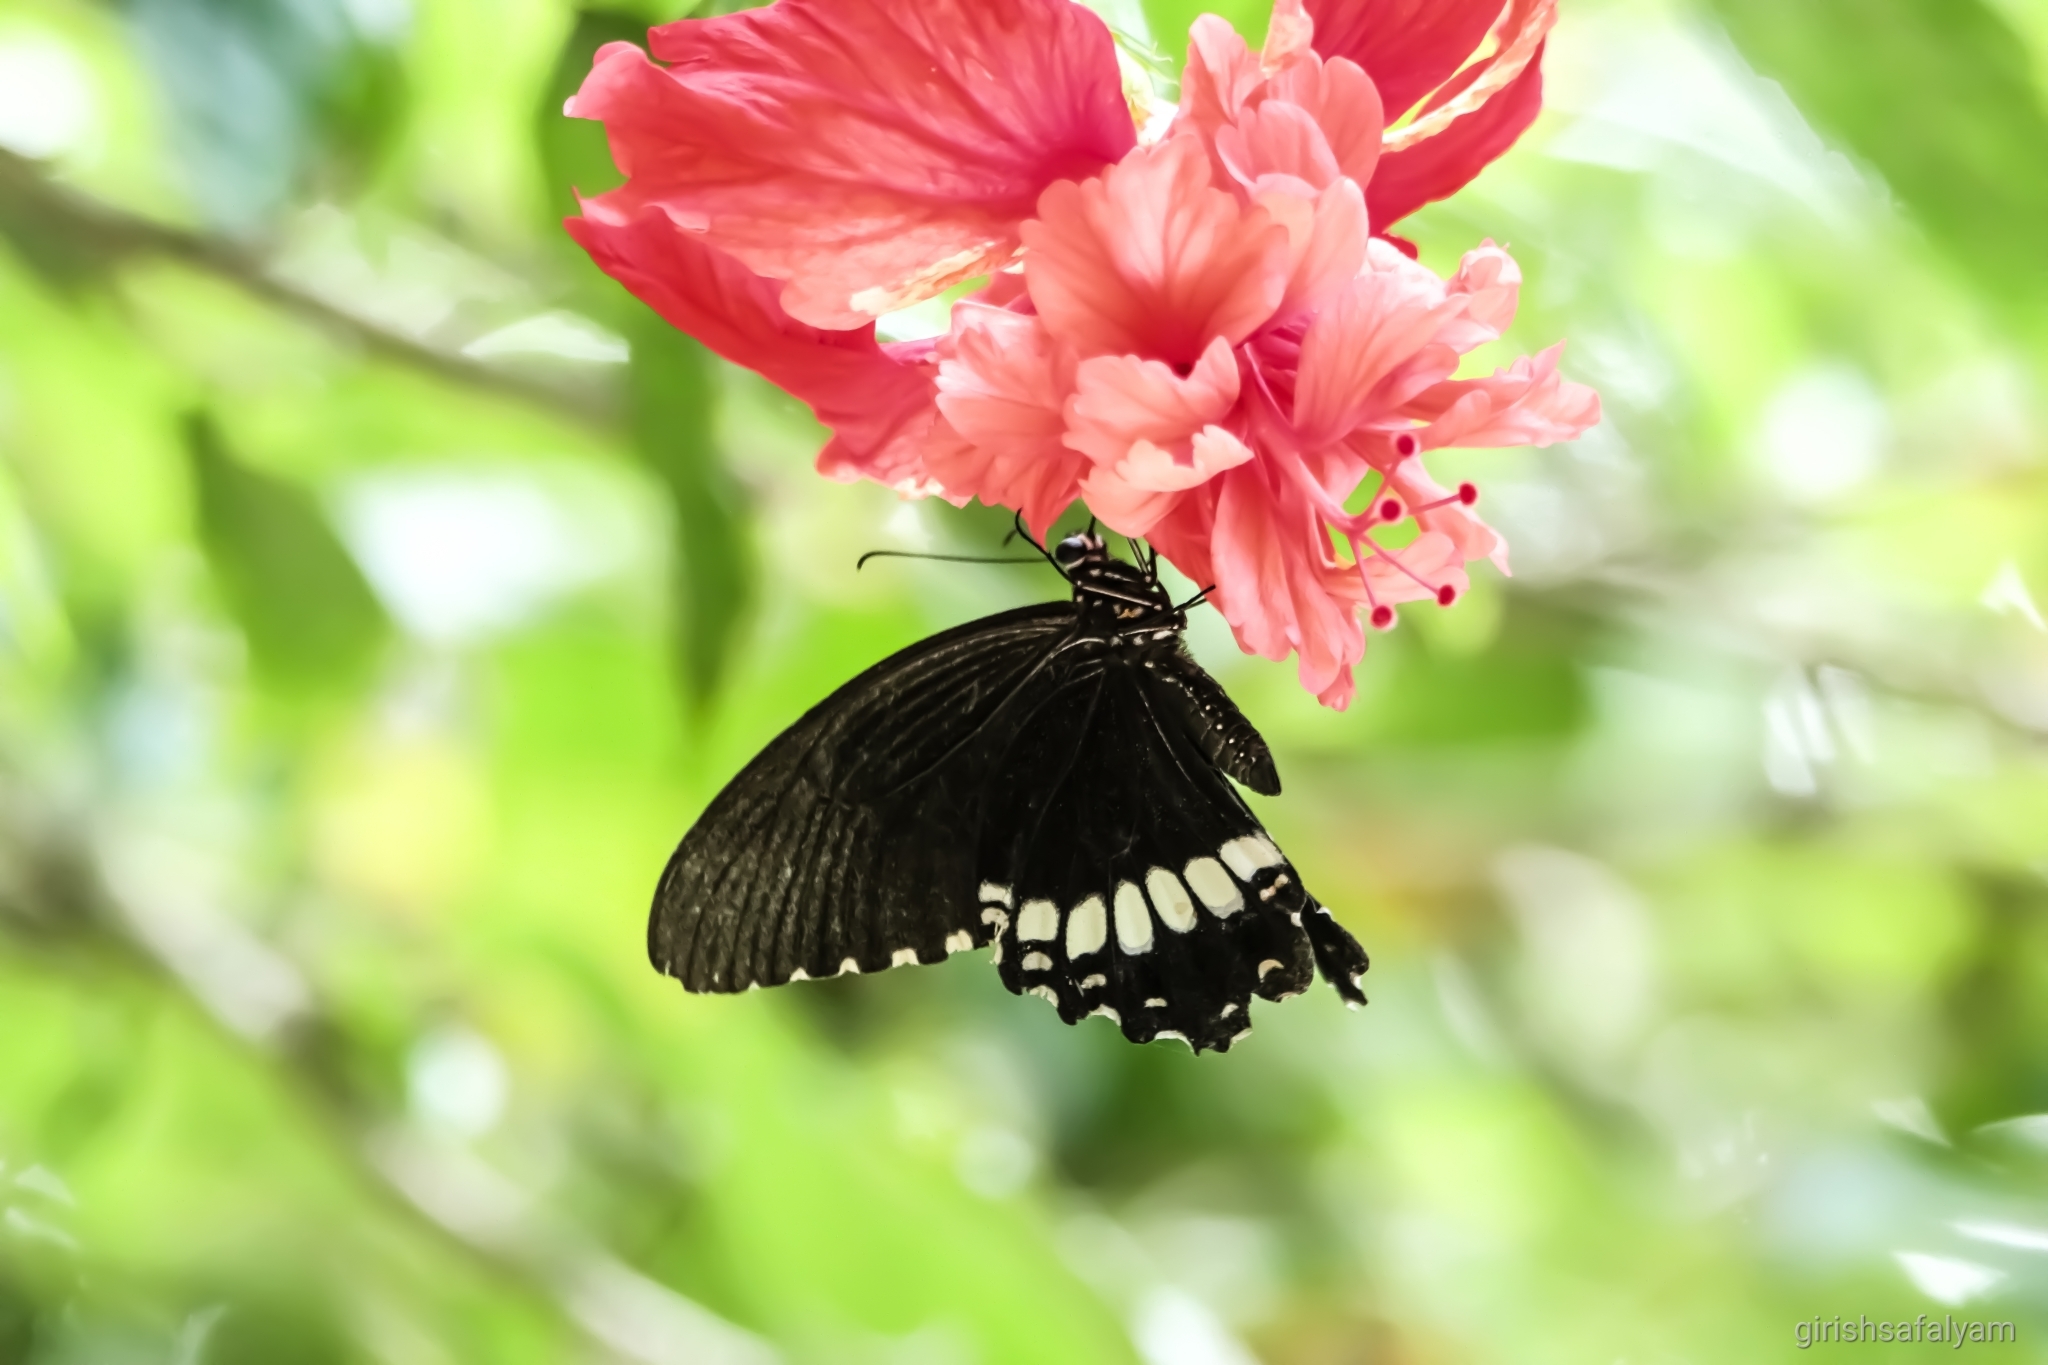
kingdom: Animalia
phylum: Arthropoda
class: Insecta
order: Lepidoptera
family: Papilionidae
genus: Papilio
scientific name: Papilio polytes
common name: Common mormon
